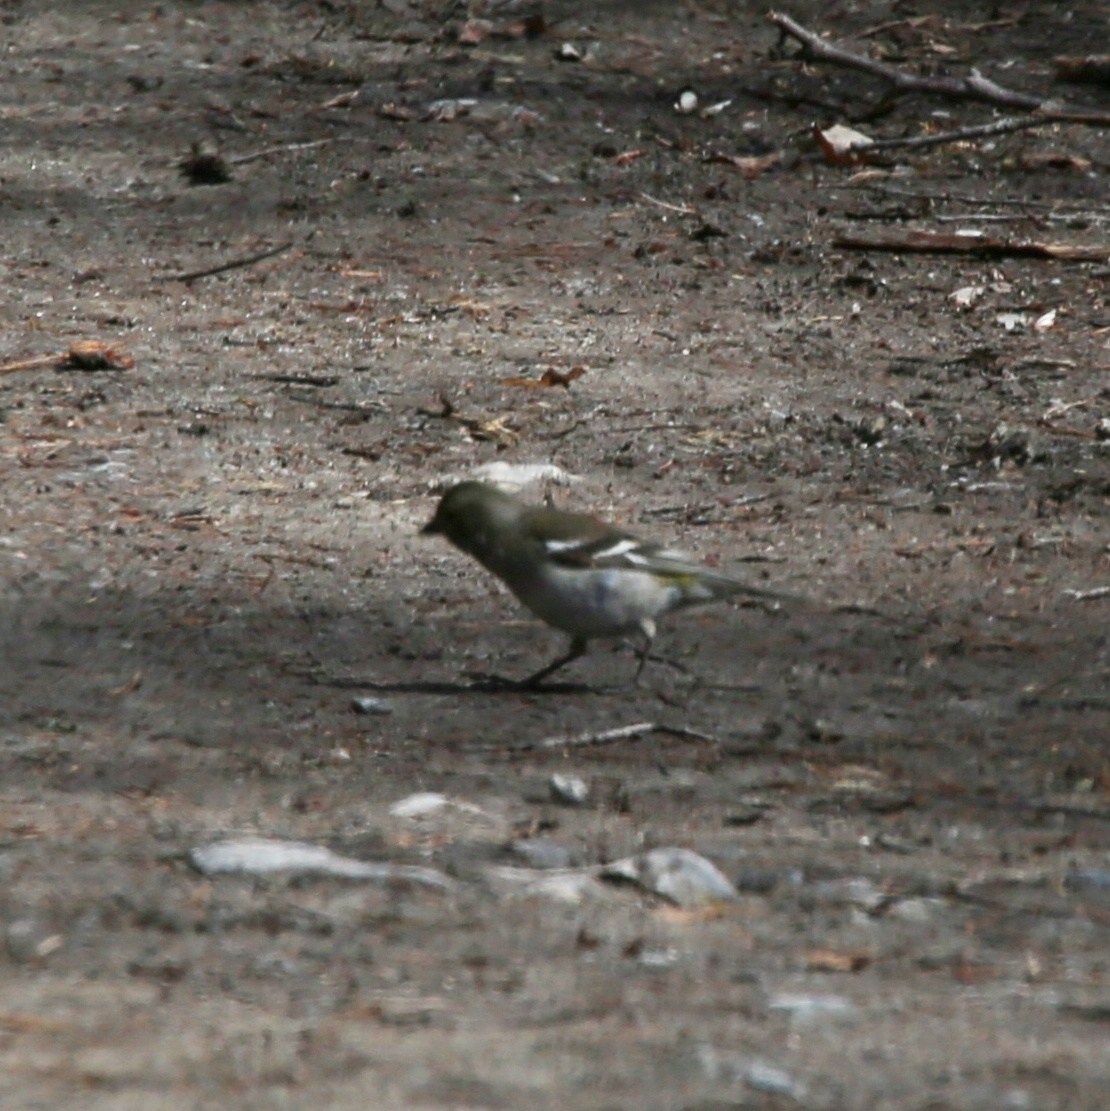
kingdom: Animalia
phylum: Chordata
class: Aves
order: Passeriformes
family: Fringillidae
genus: Fringilla
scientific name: Fringilla coelebs
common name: Common chaffinch
